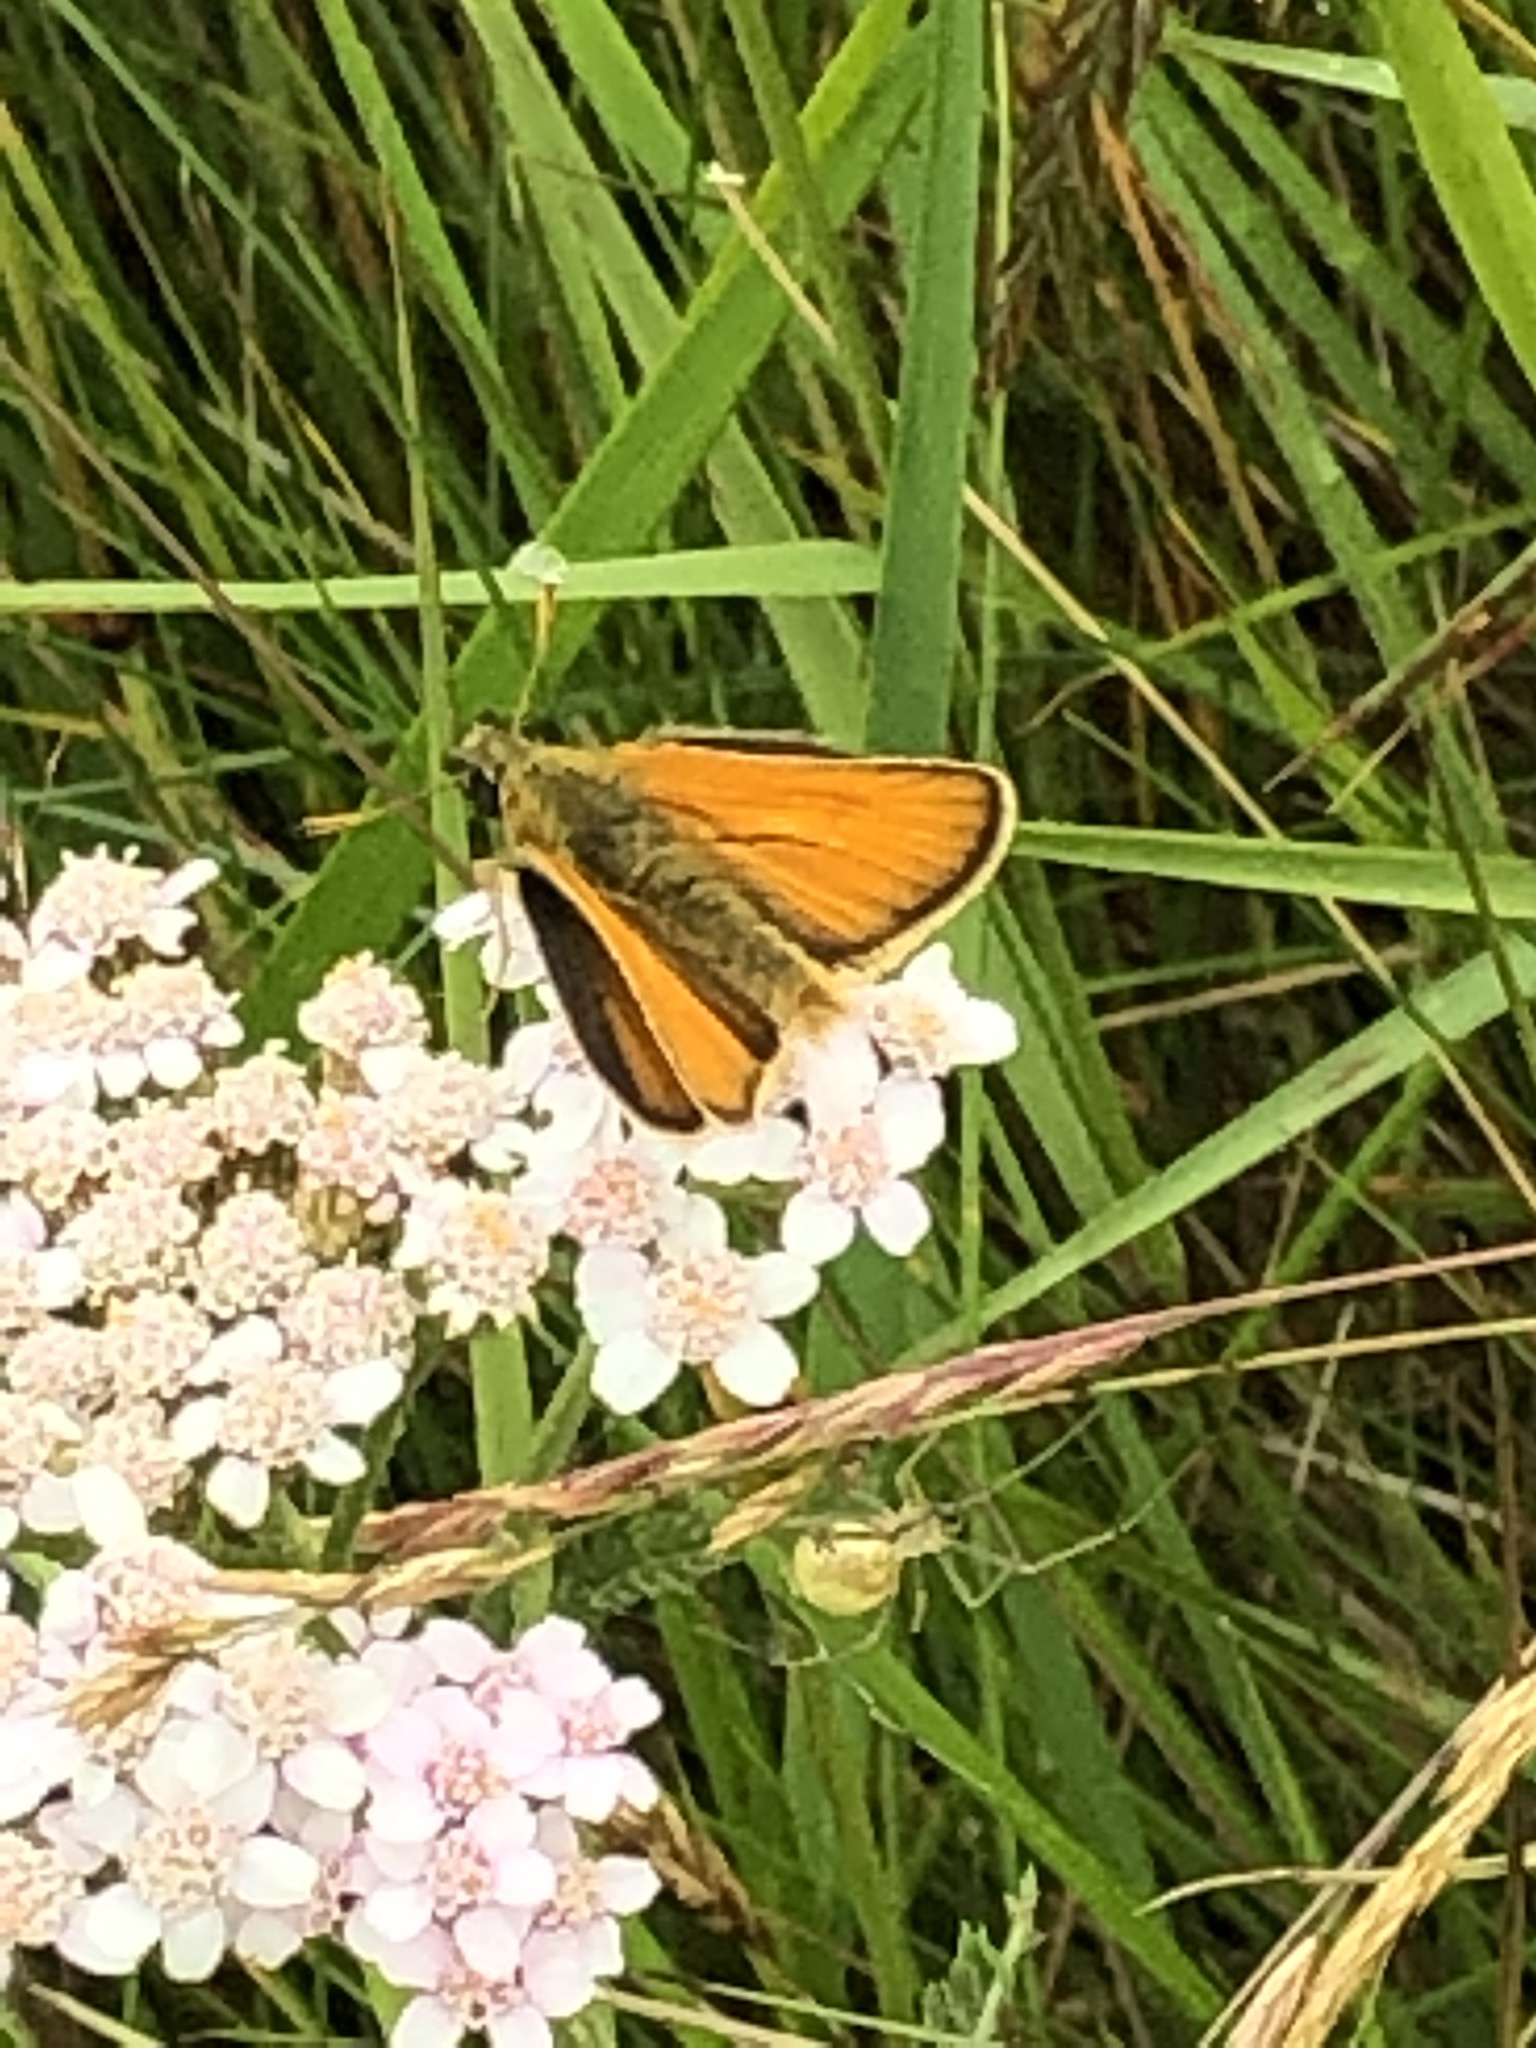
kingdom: Animalia
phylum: Arthropoda
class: Insecta
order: Lepidoptera
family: Hesperiidae
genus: Thymelicus
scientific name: Thymelicus sylvestris
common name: Small skipper
